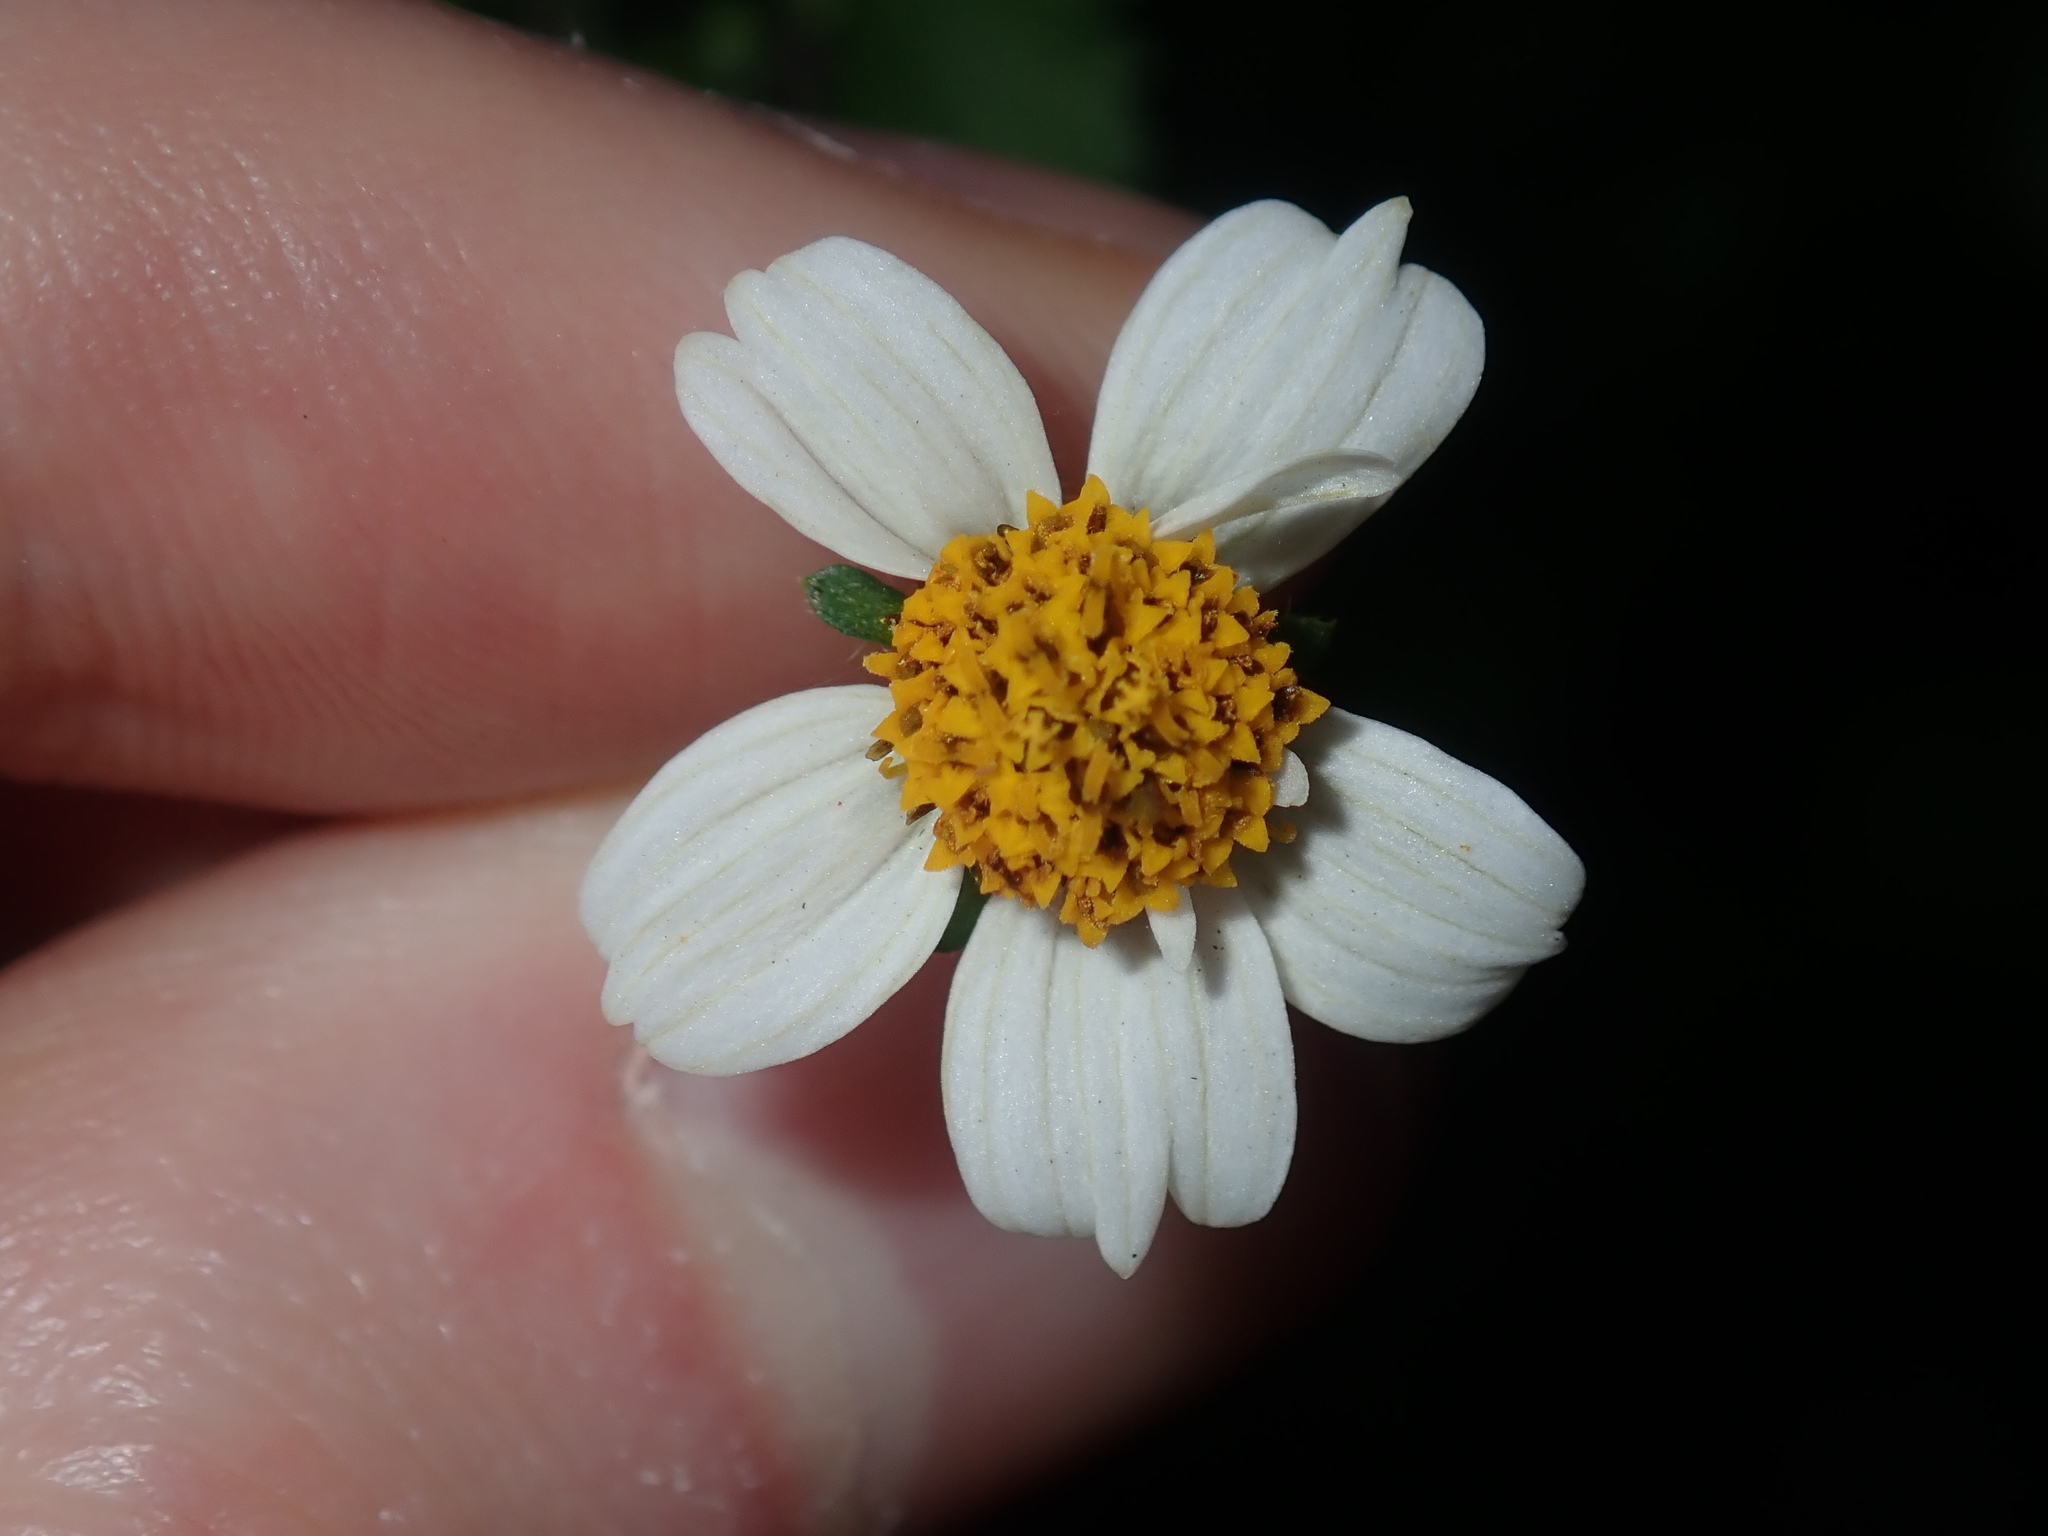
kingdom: Plantae
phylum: Tracheophyta
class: Magnoliopsida
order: Asterales
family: Asteraceae
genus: Bidens
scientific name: Bidens alba
